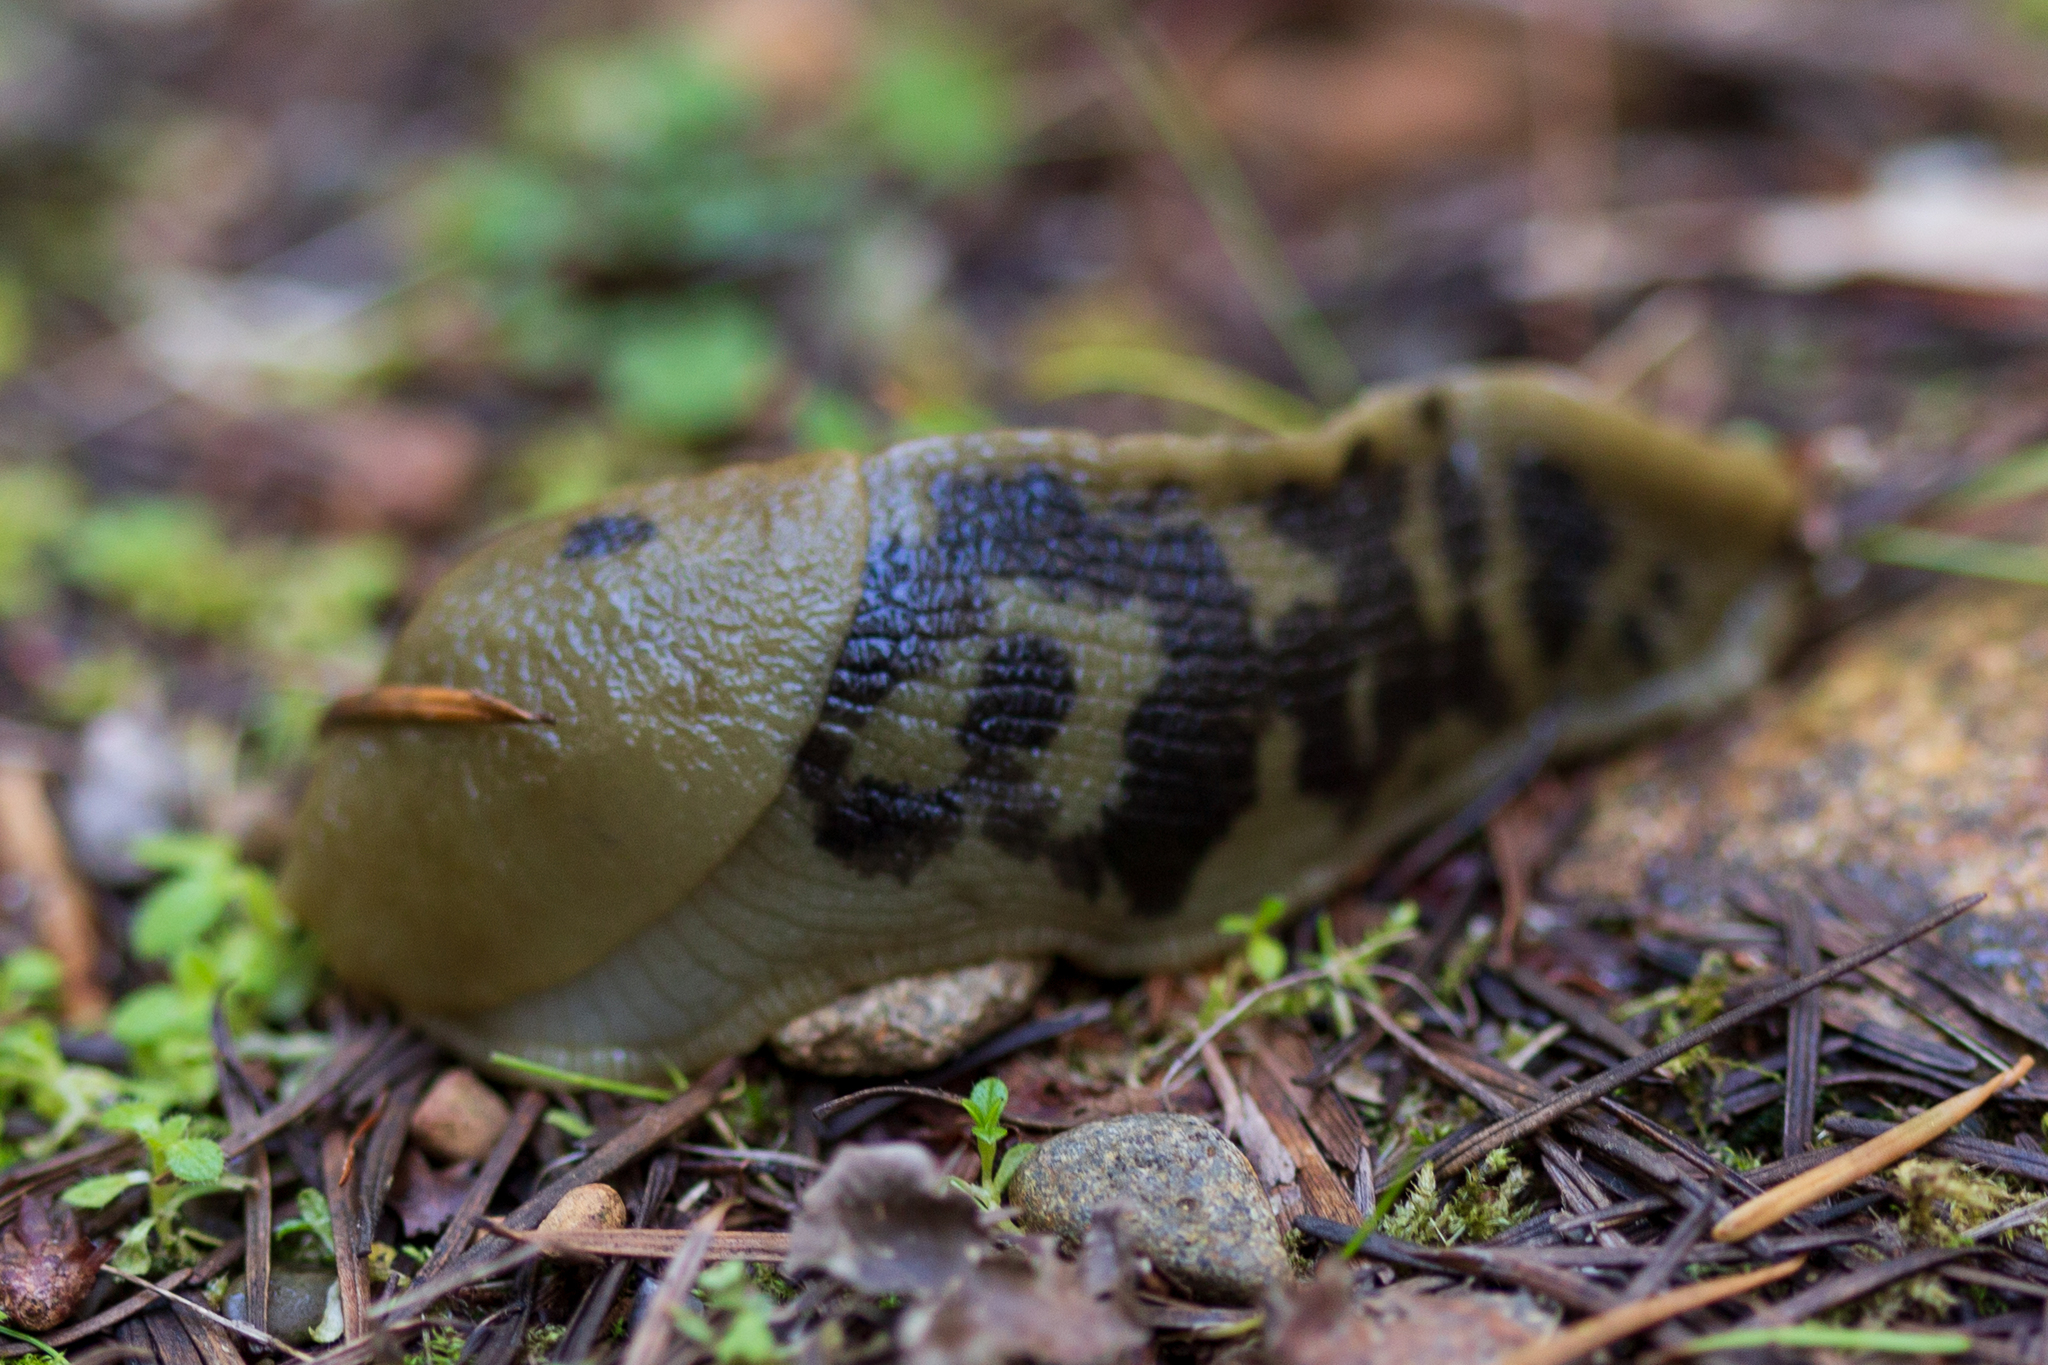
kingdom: Animalia
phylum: Mollusca
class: Gastropoda
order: Stylommatophora
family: Ariolimacidae
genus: Ariolimax
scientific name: Ariolimax columbianus
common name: Pacific banana slug
